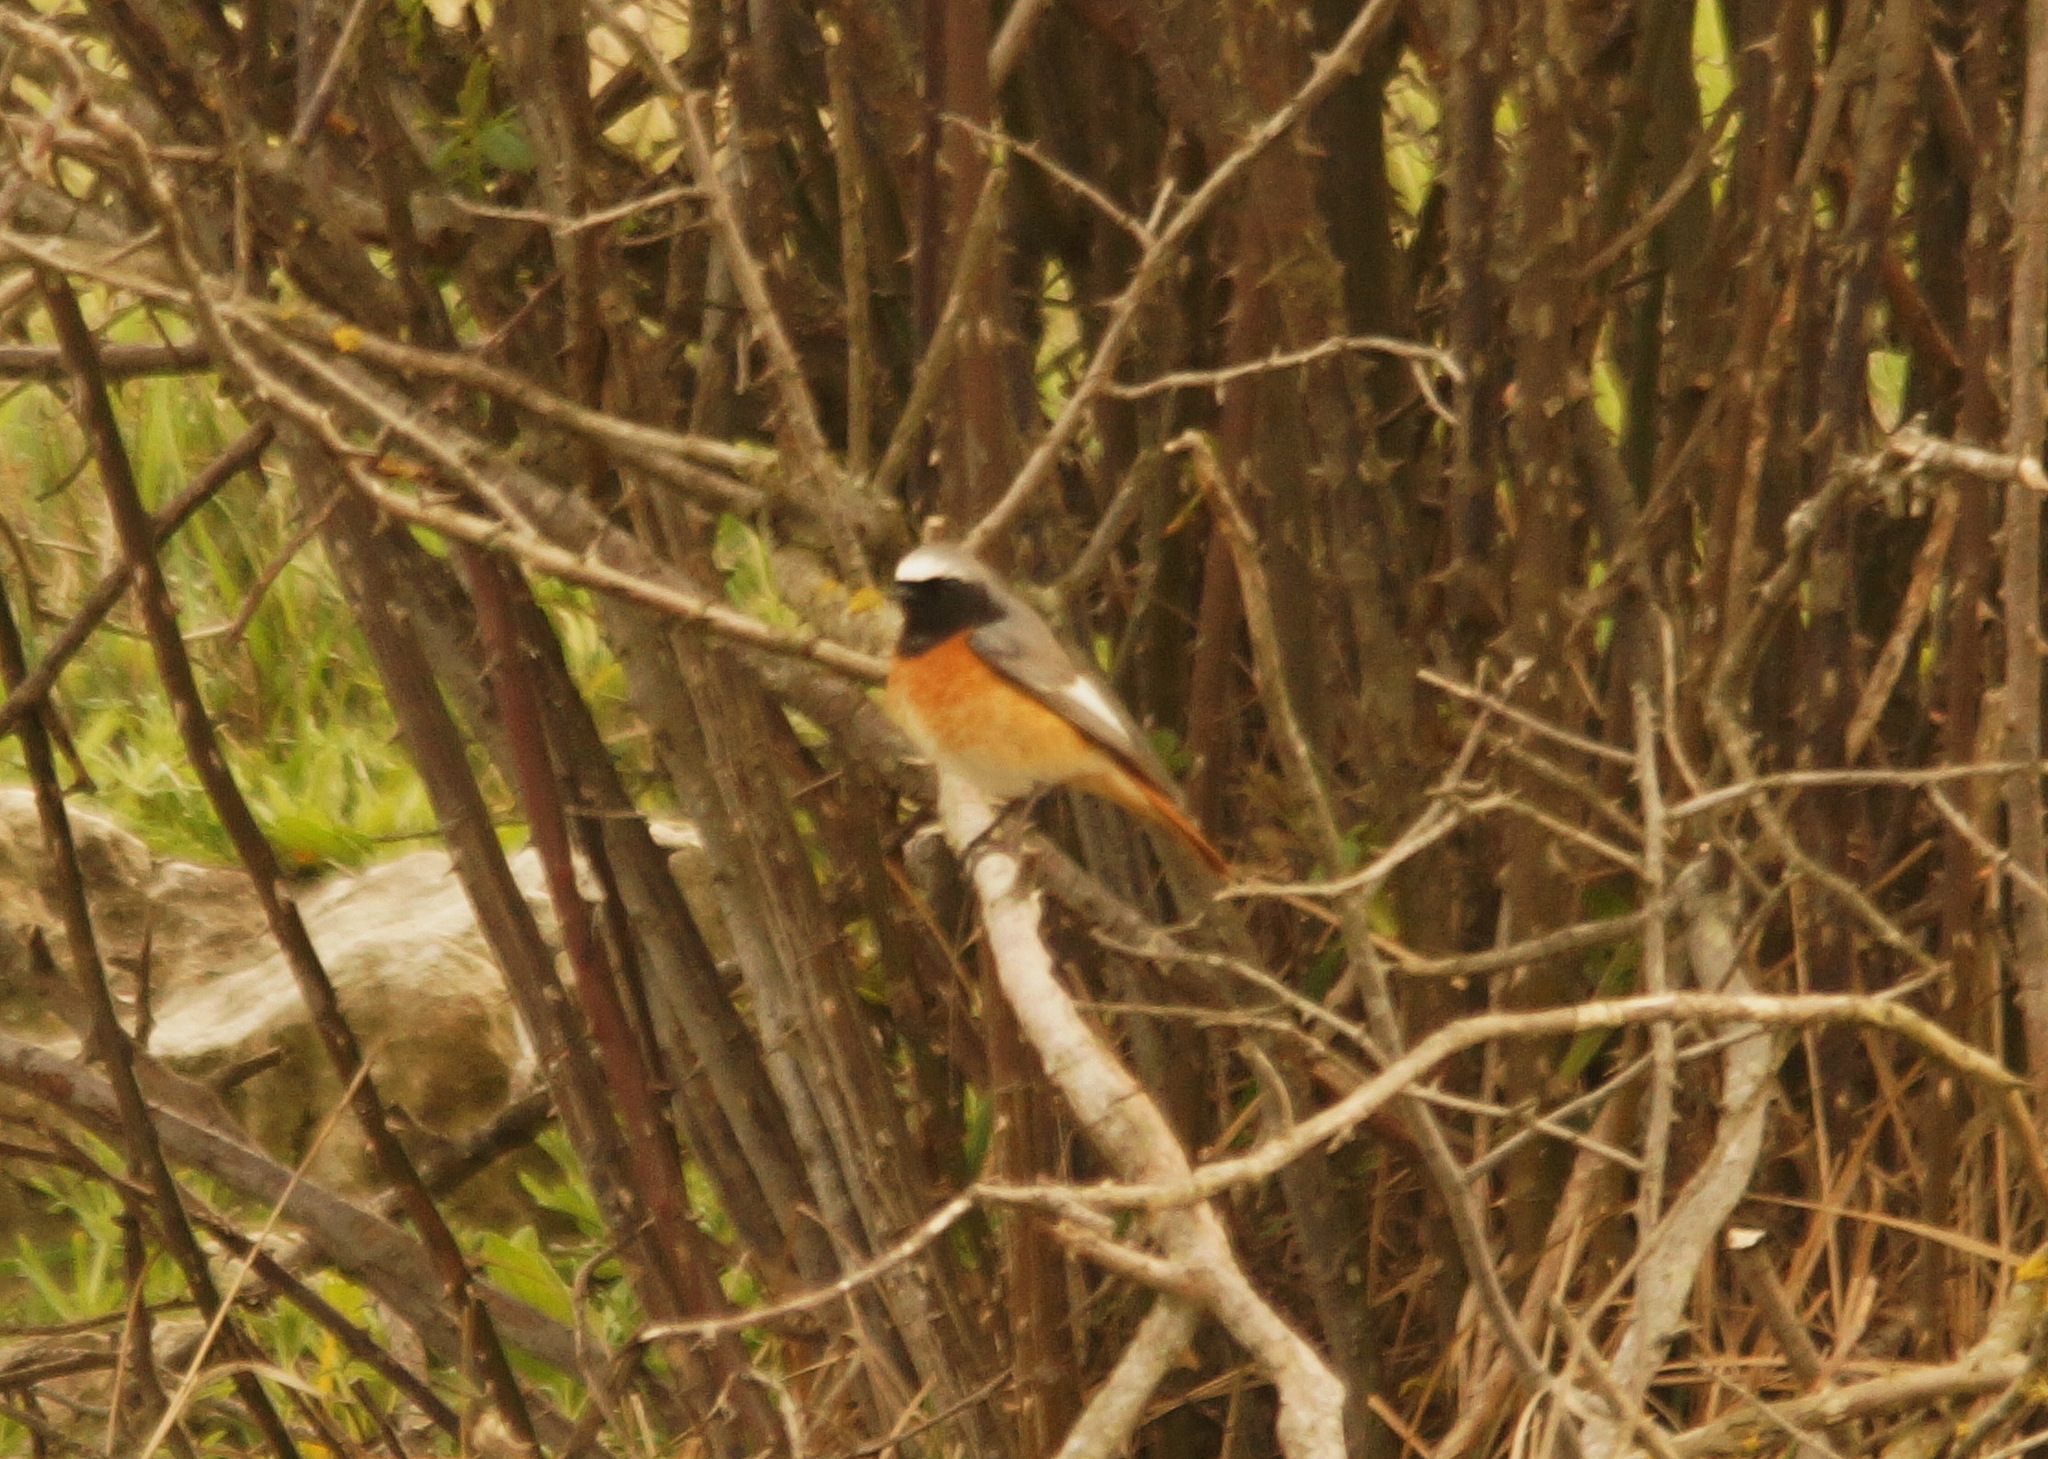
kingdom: Animalia
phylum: Chordata
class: Aves
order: Passeriformes
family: Muscicapidae
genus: Phoenicurus
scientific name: Phoenicurus phoenicurus
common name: Common redstart
